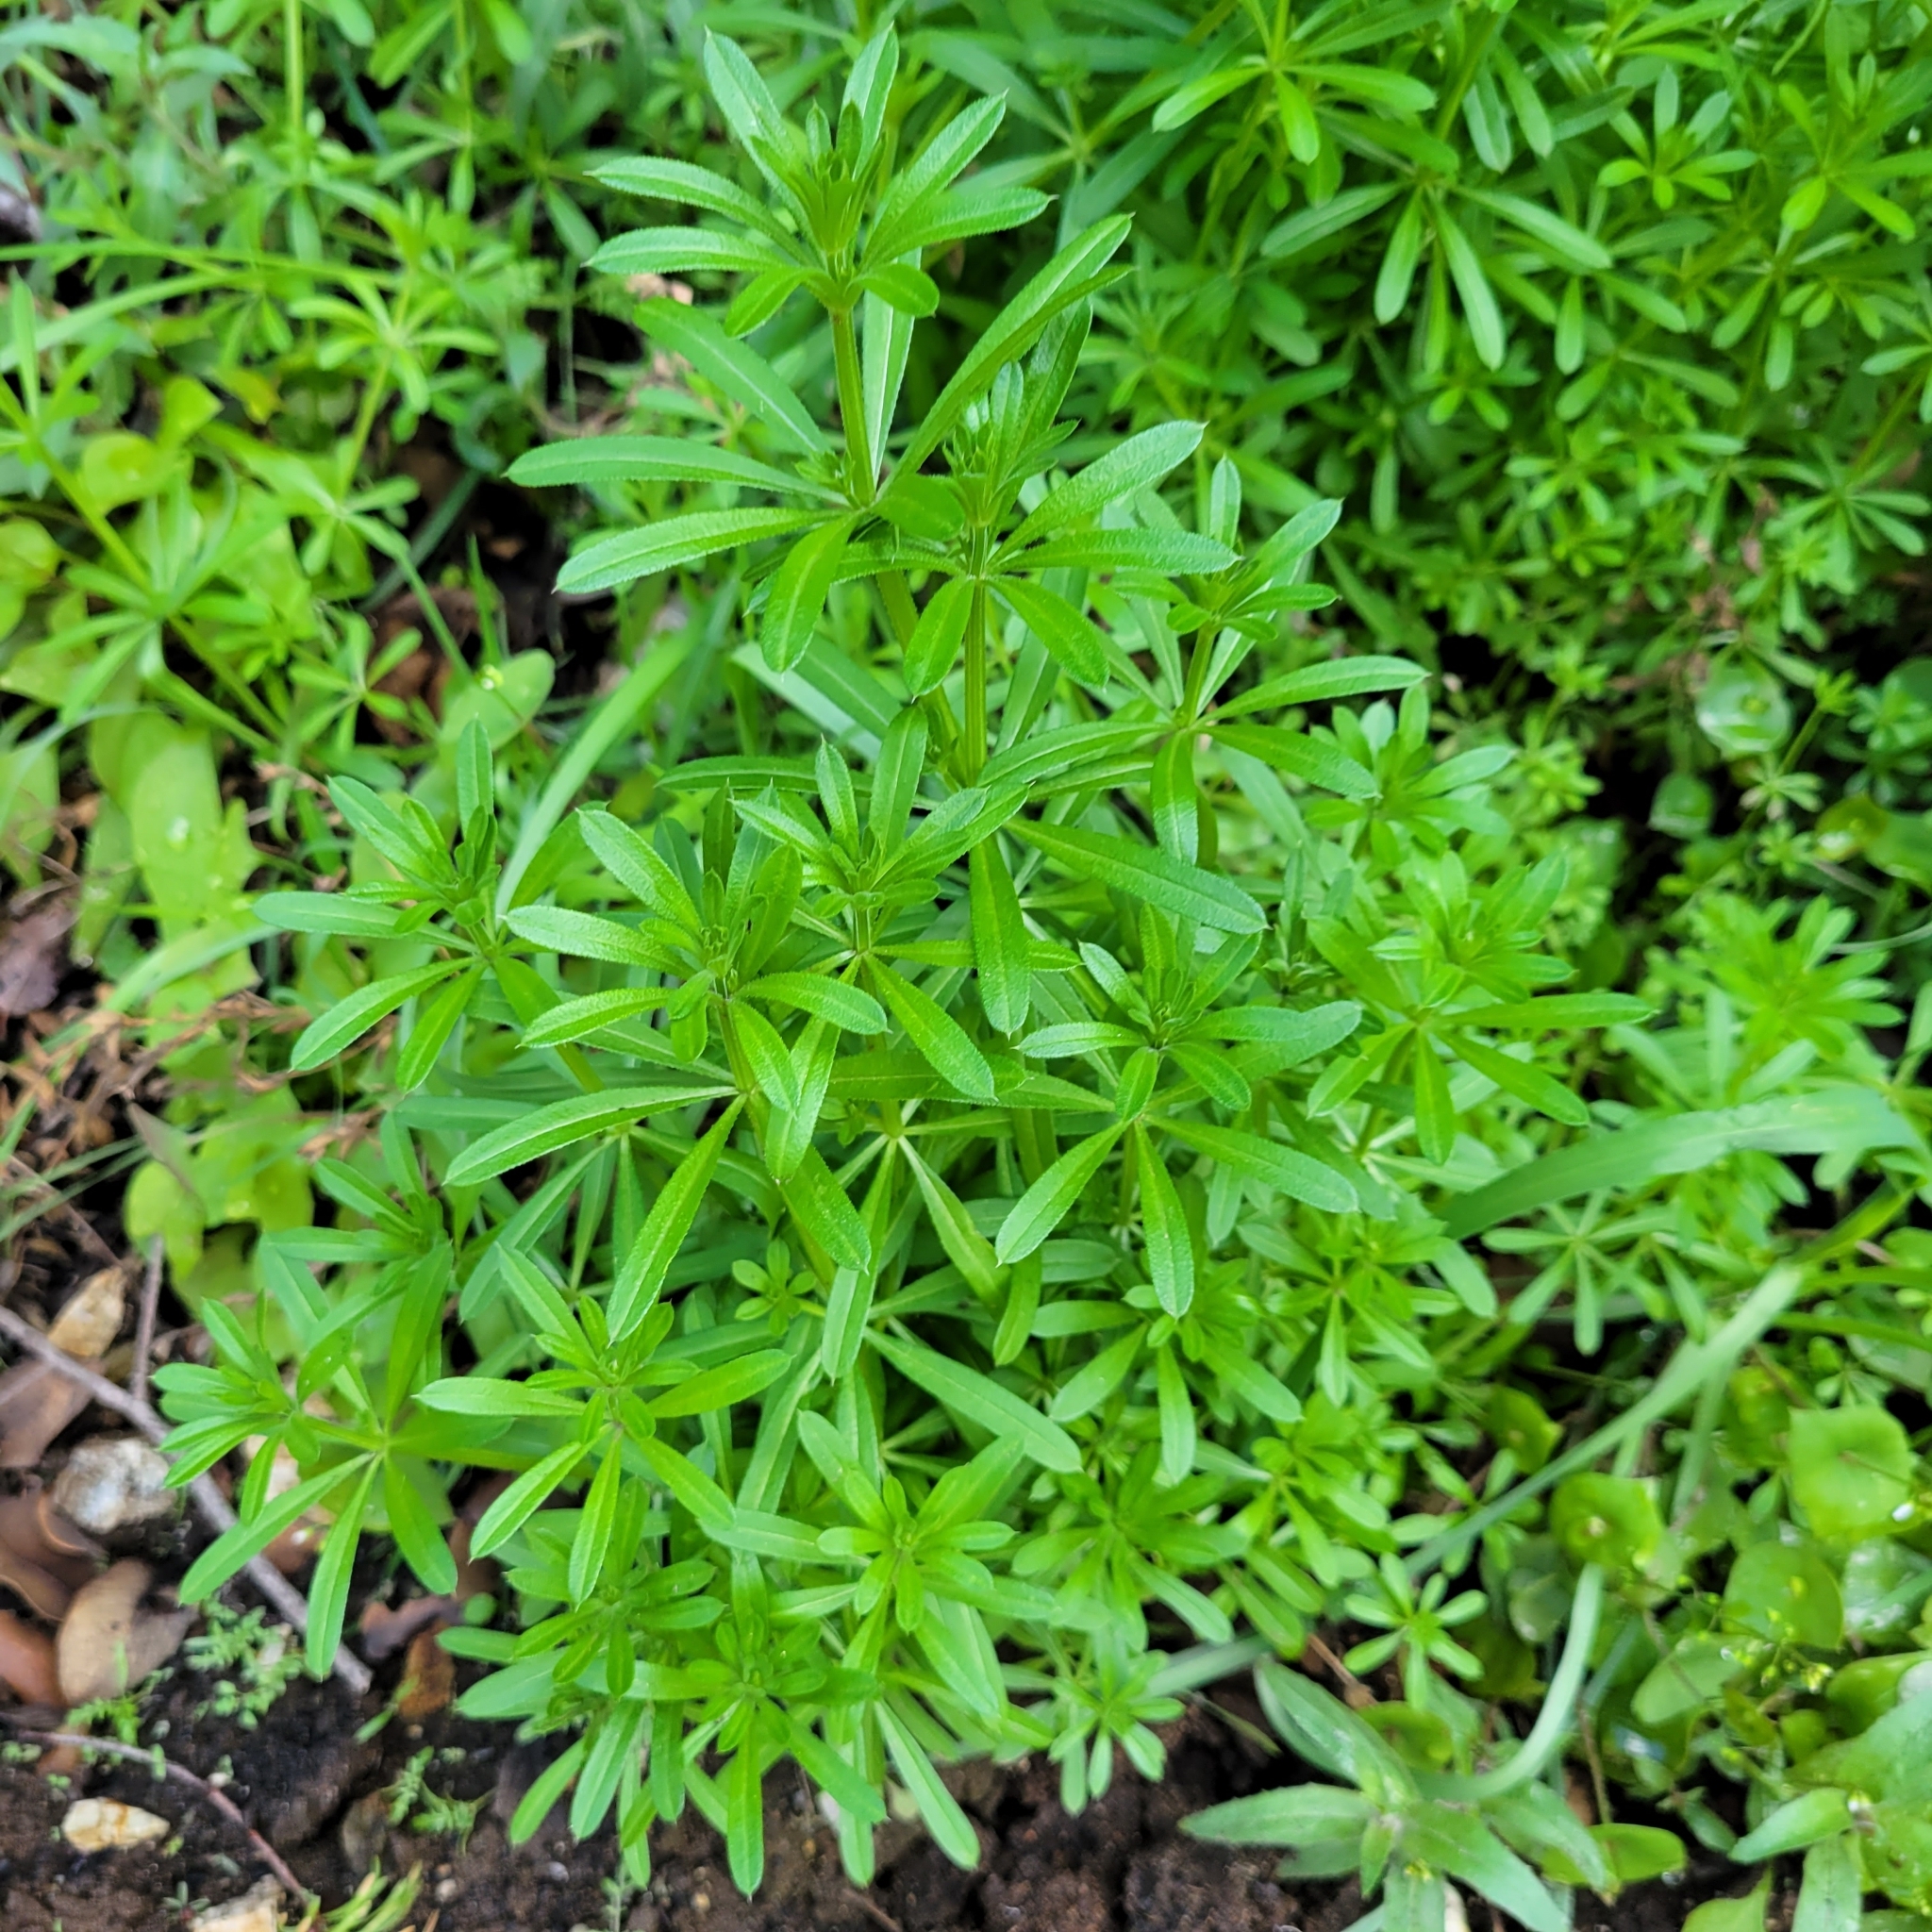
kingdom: Plantae
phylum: Tracheophyta
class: Magnoliopsida
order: Gentianales
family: Rubiaceae
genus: Galium
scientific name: Galium aparine
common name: Cleavers
